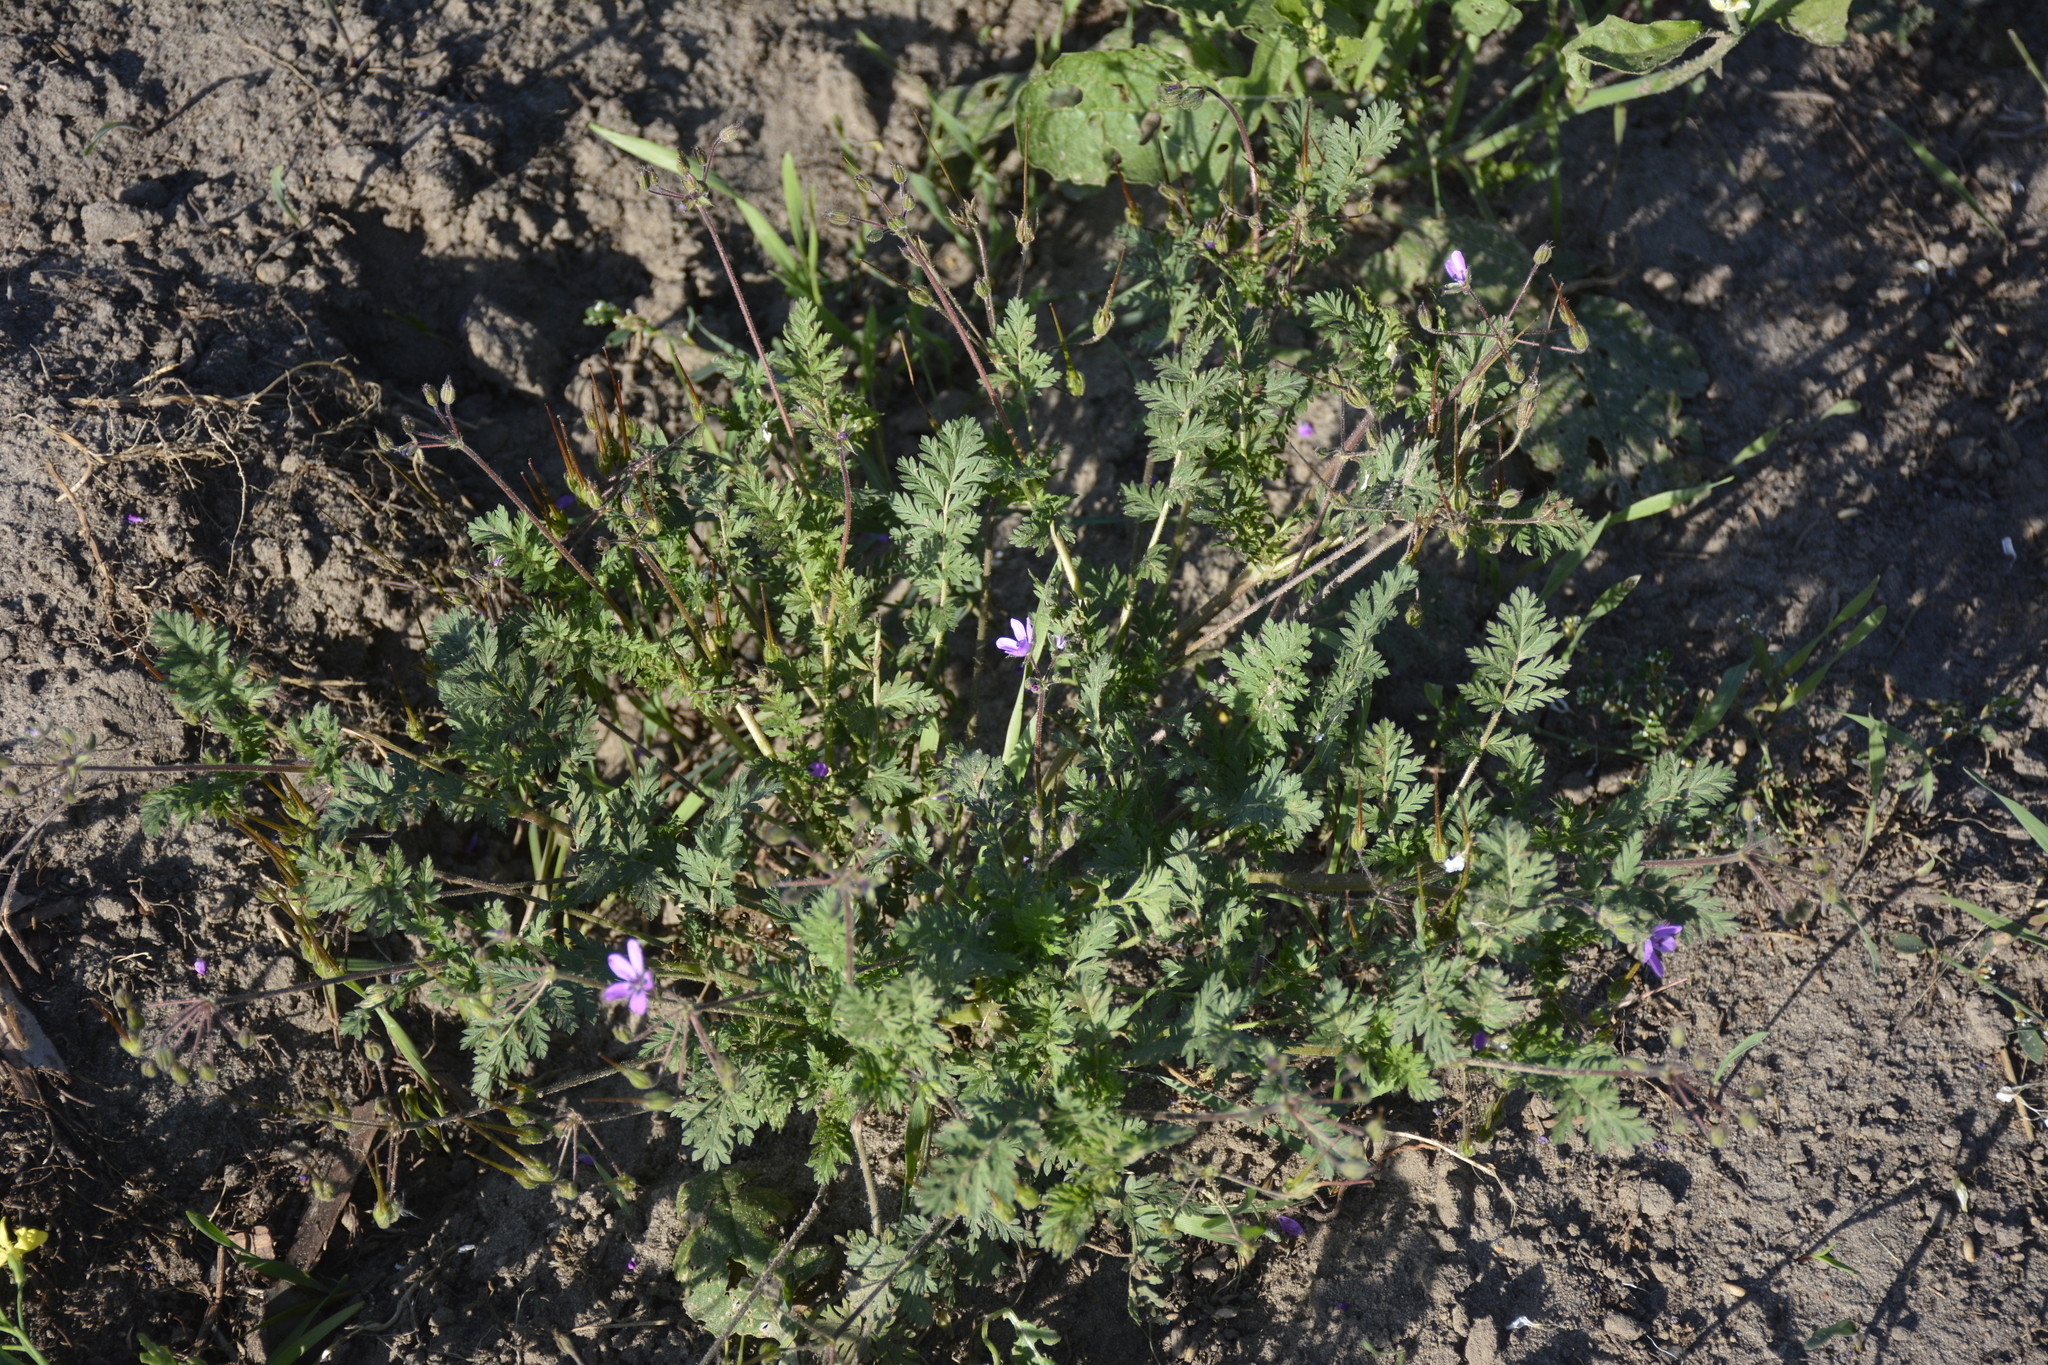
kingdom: Plantae
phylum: Tracheophyta
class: Magnoliopsida
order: Geraniales
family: Geraniaceae
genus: Erodium
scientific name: Erodium cicutarium
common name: Common stork's-bill
